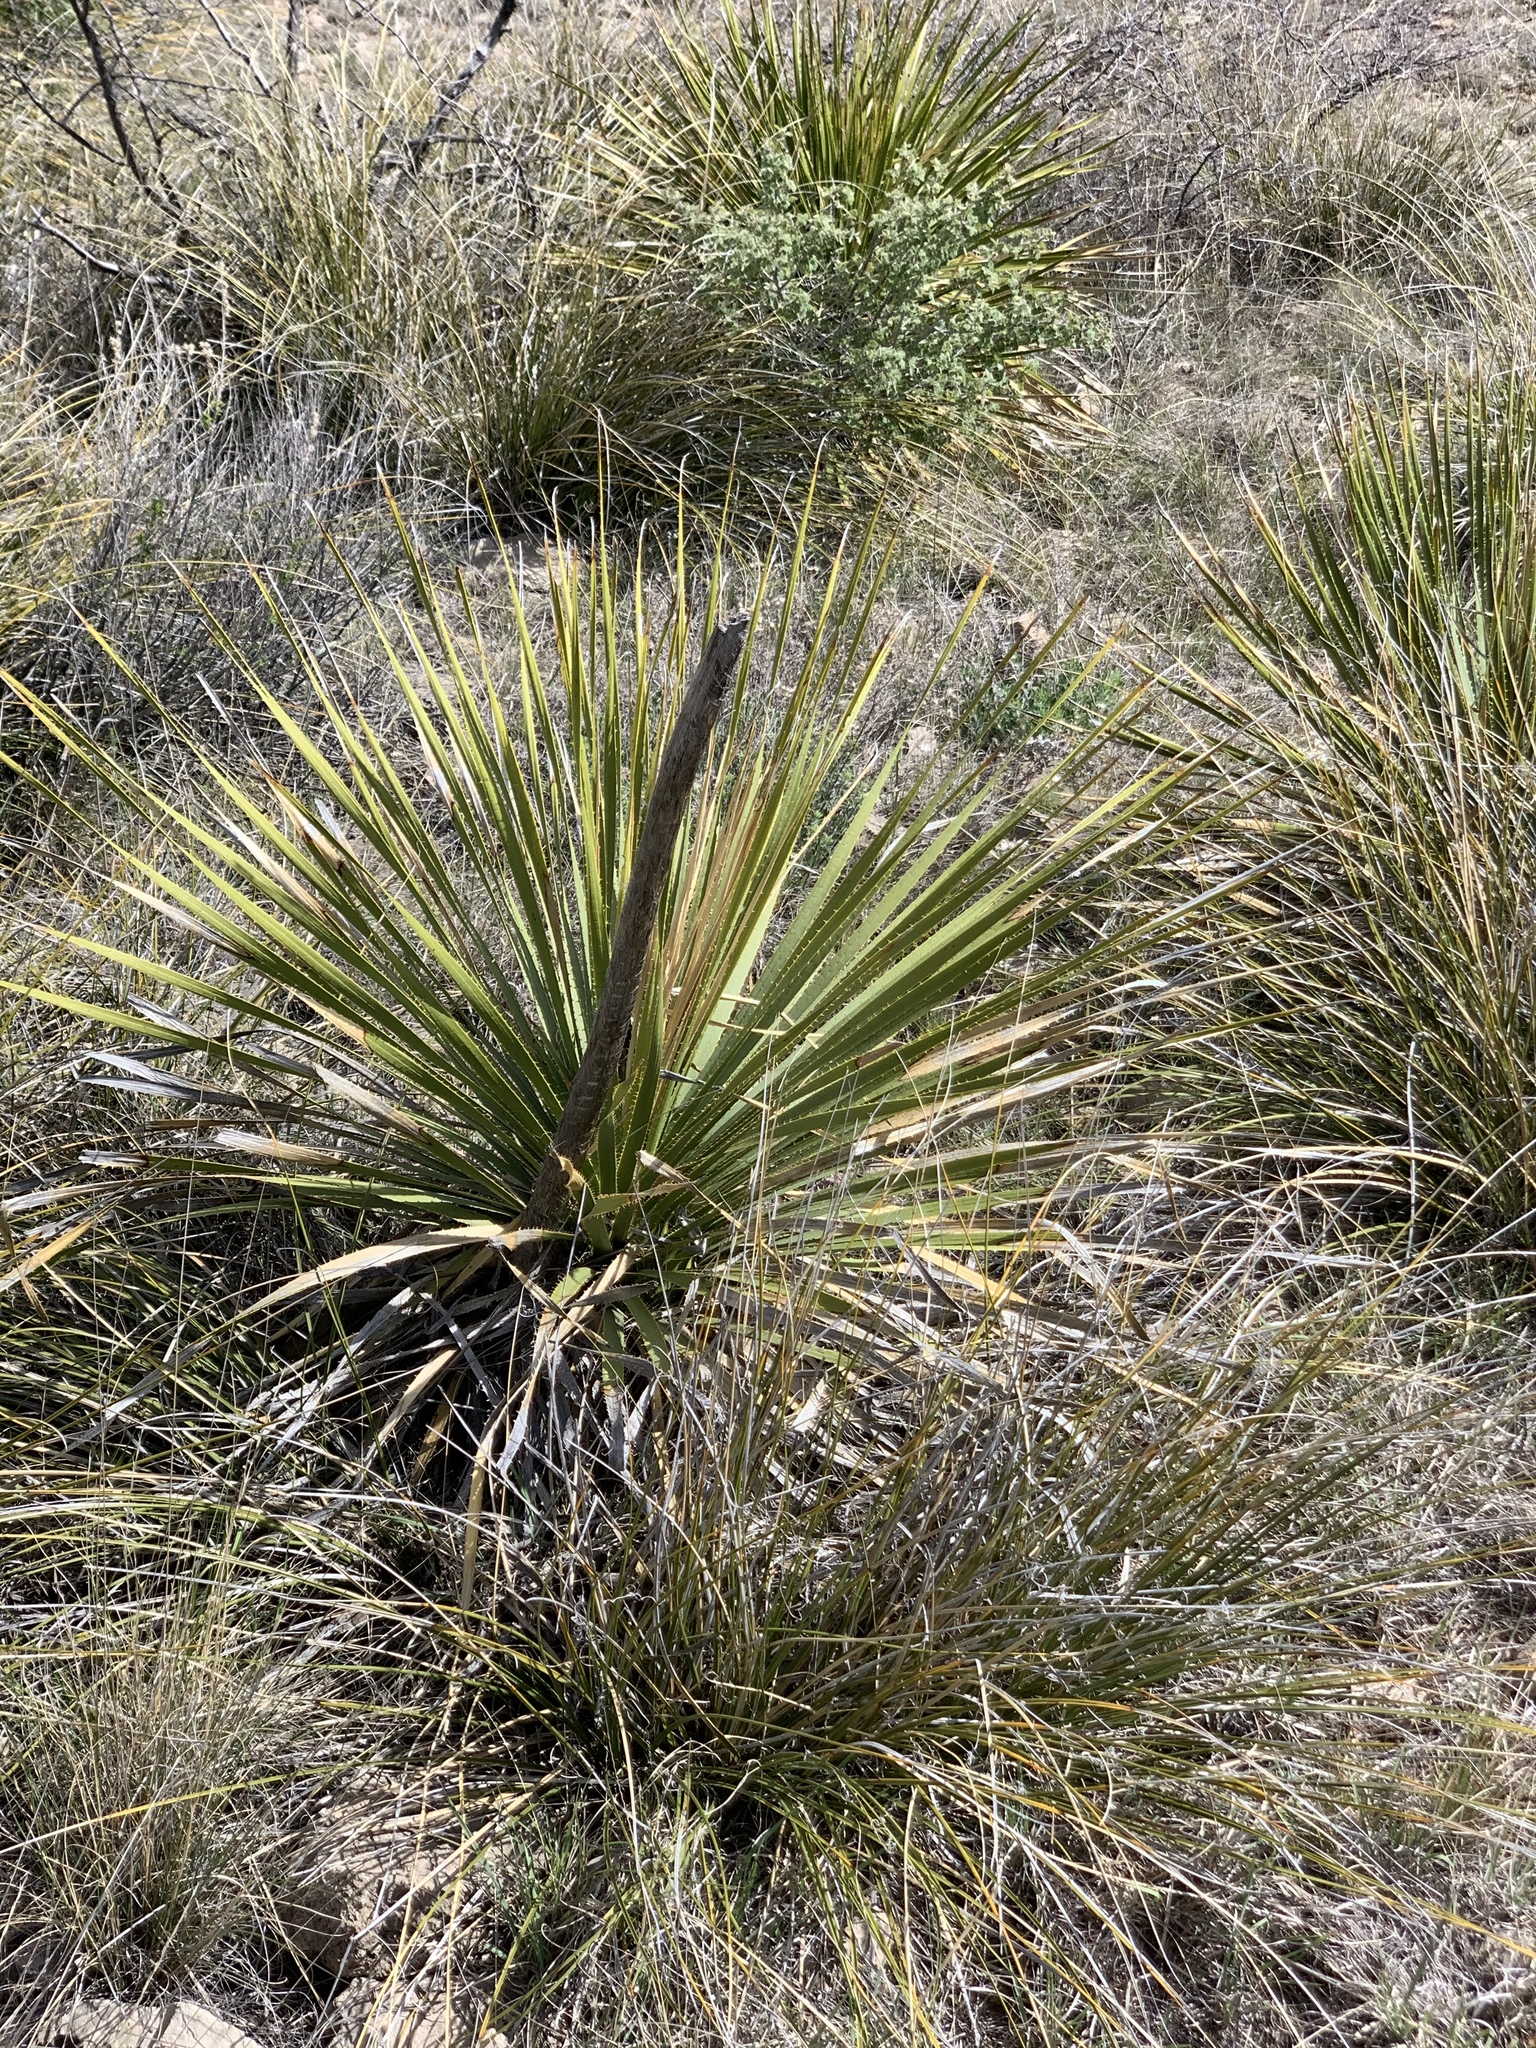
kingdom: Plantae
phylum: Tracheophyta
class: Liliopsida
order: Asparagales
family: Asparagaceae
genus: Dasylirion
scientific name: Dasylirion leiophyllum
